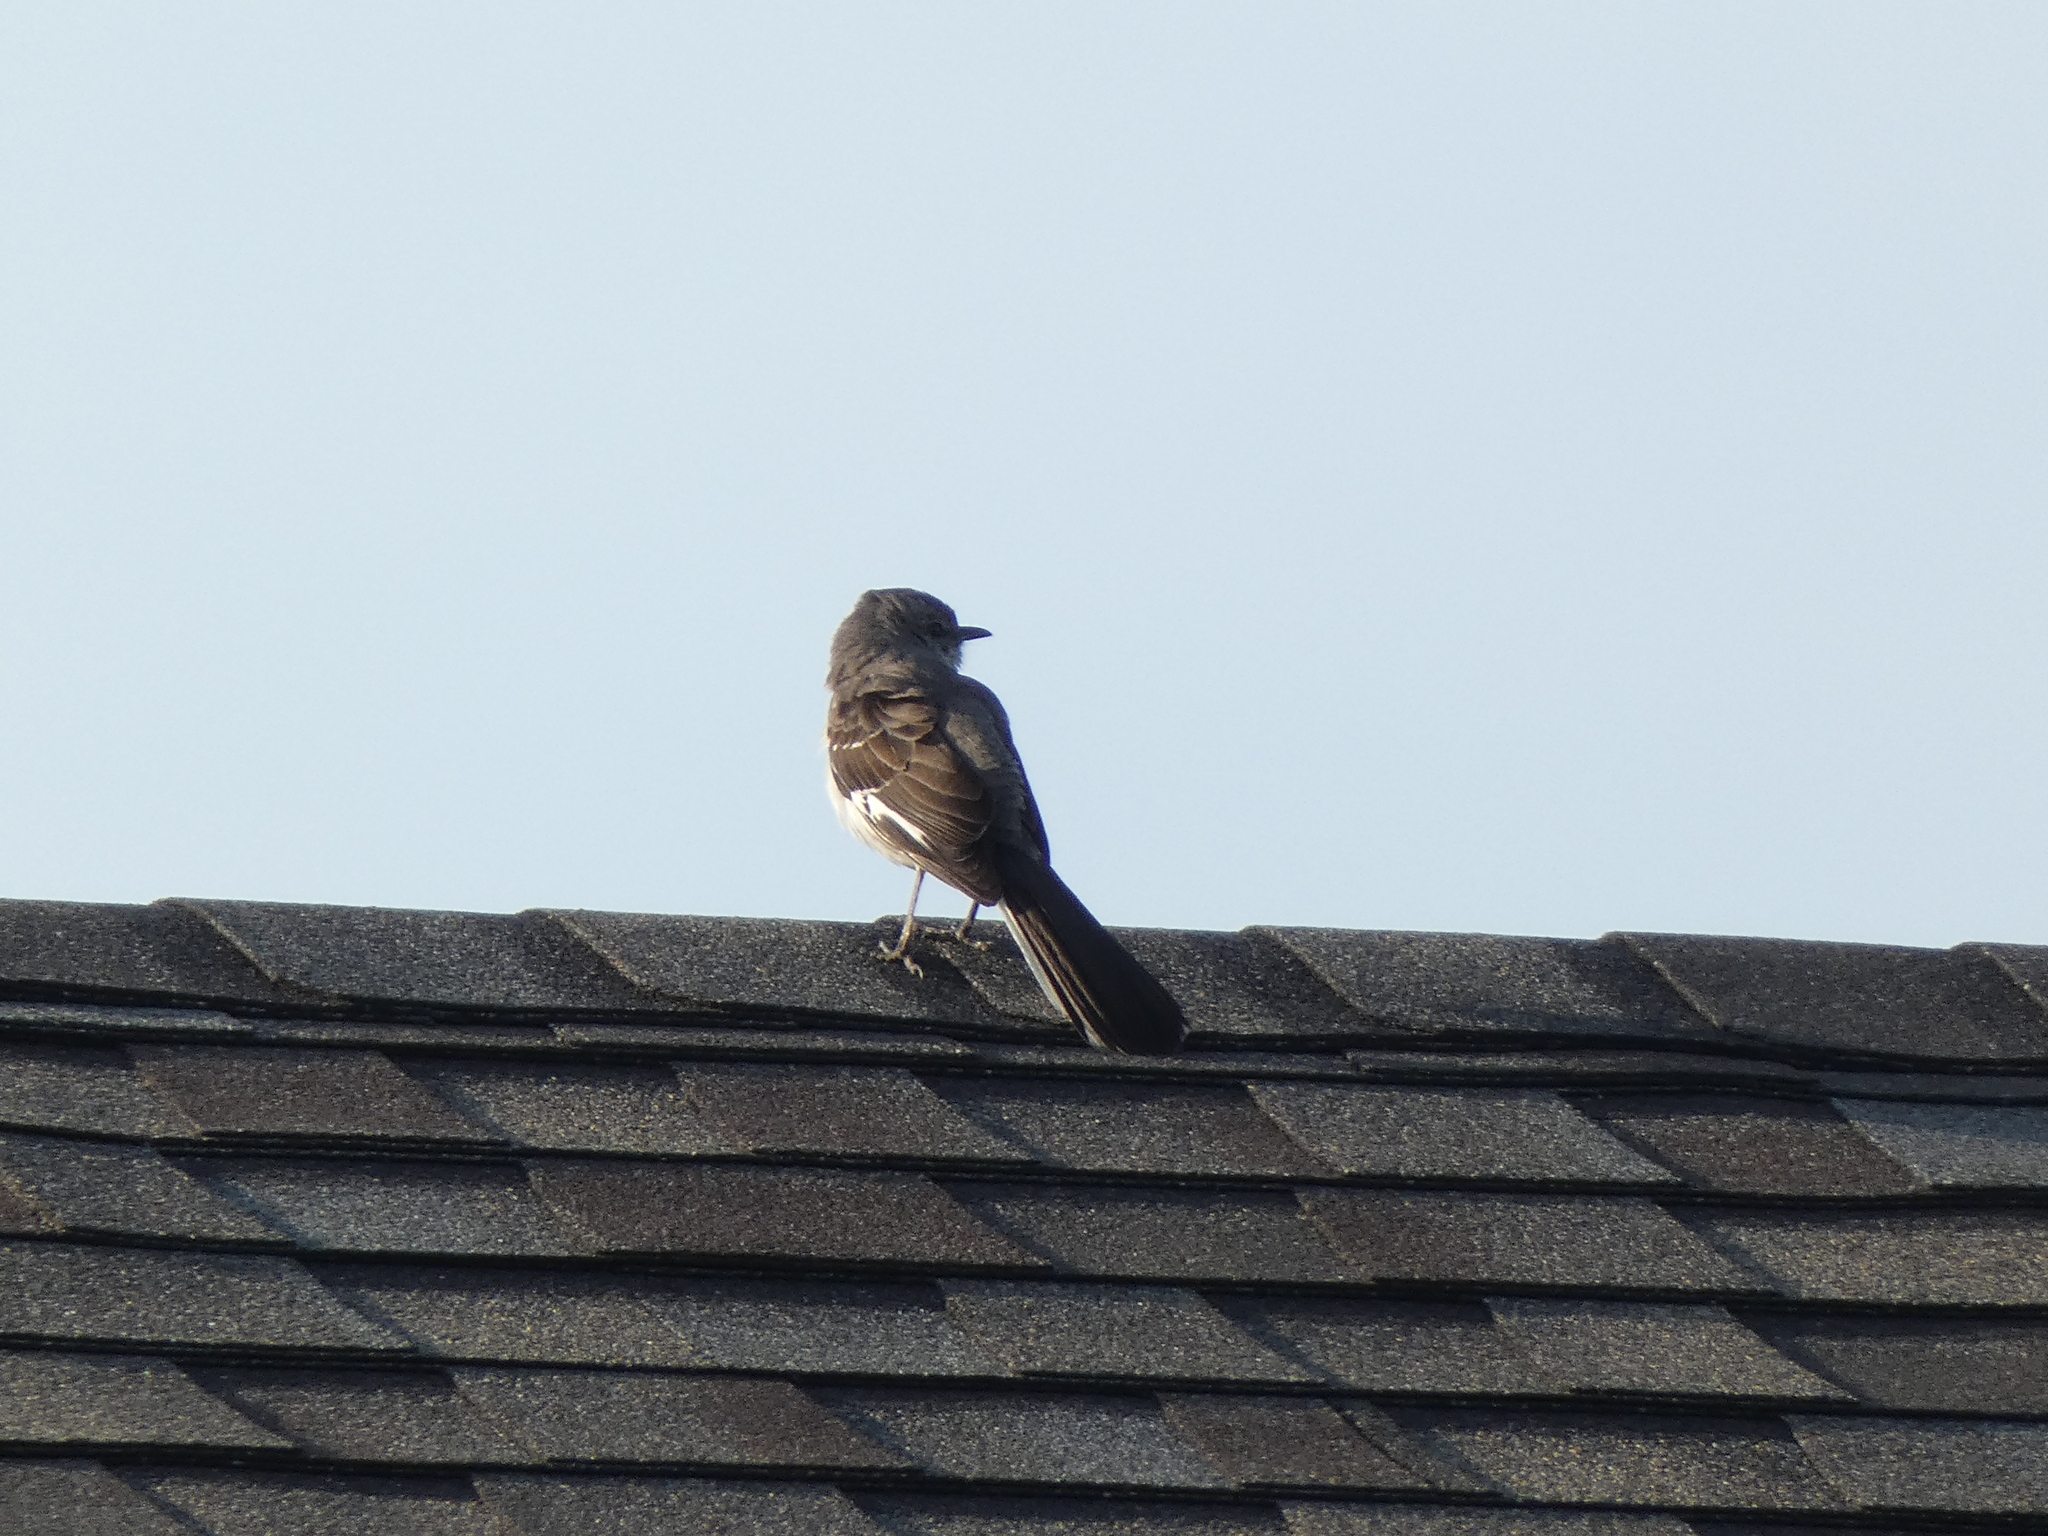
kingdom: Animalia
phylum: Chordata
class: Aves
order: Passeriformes
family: Mimidae
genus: Mimus
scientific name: Mimus polyglottos
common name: Northern mockingbird
